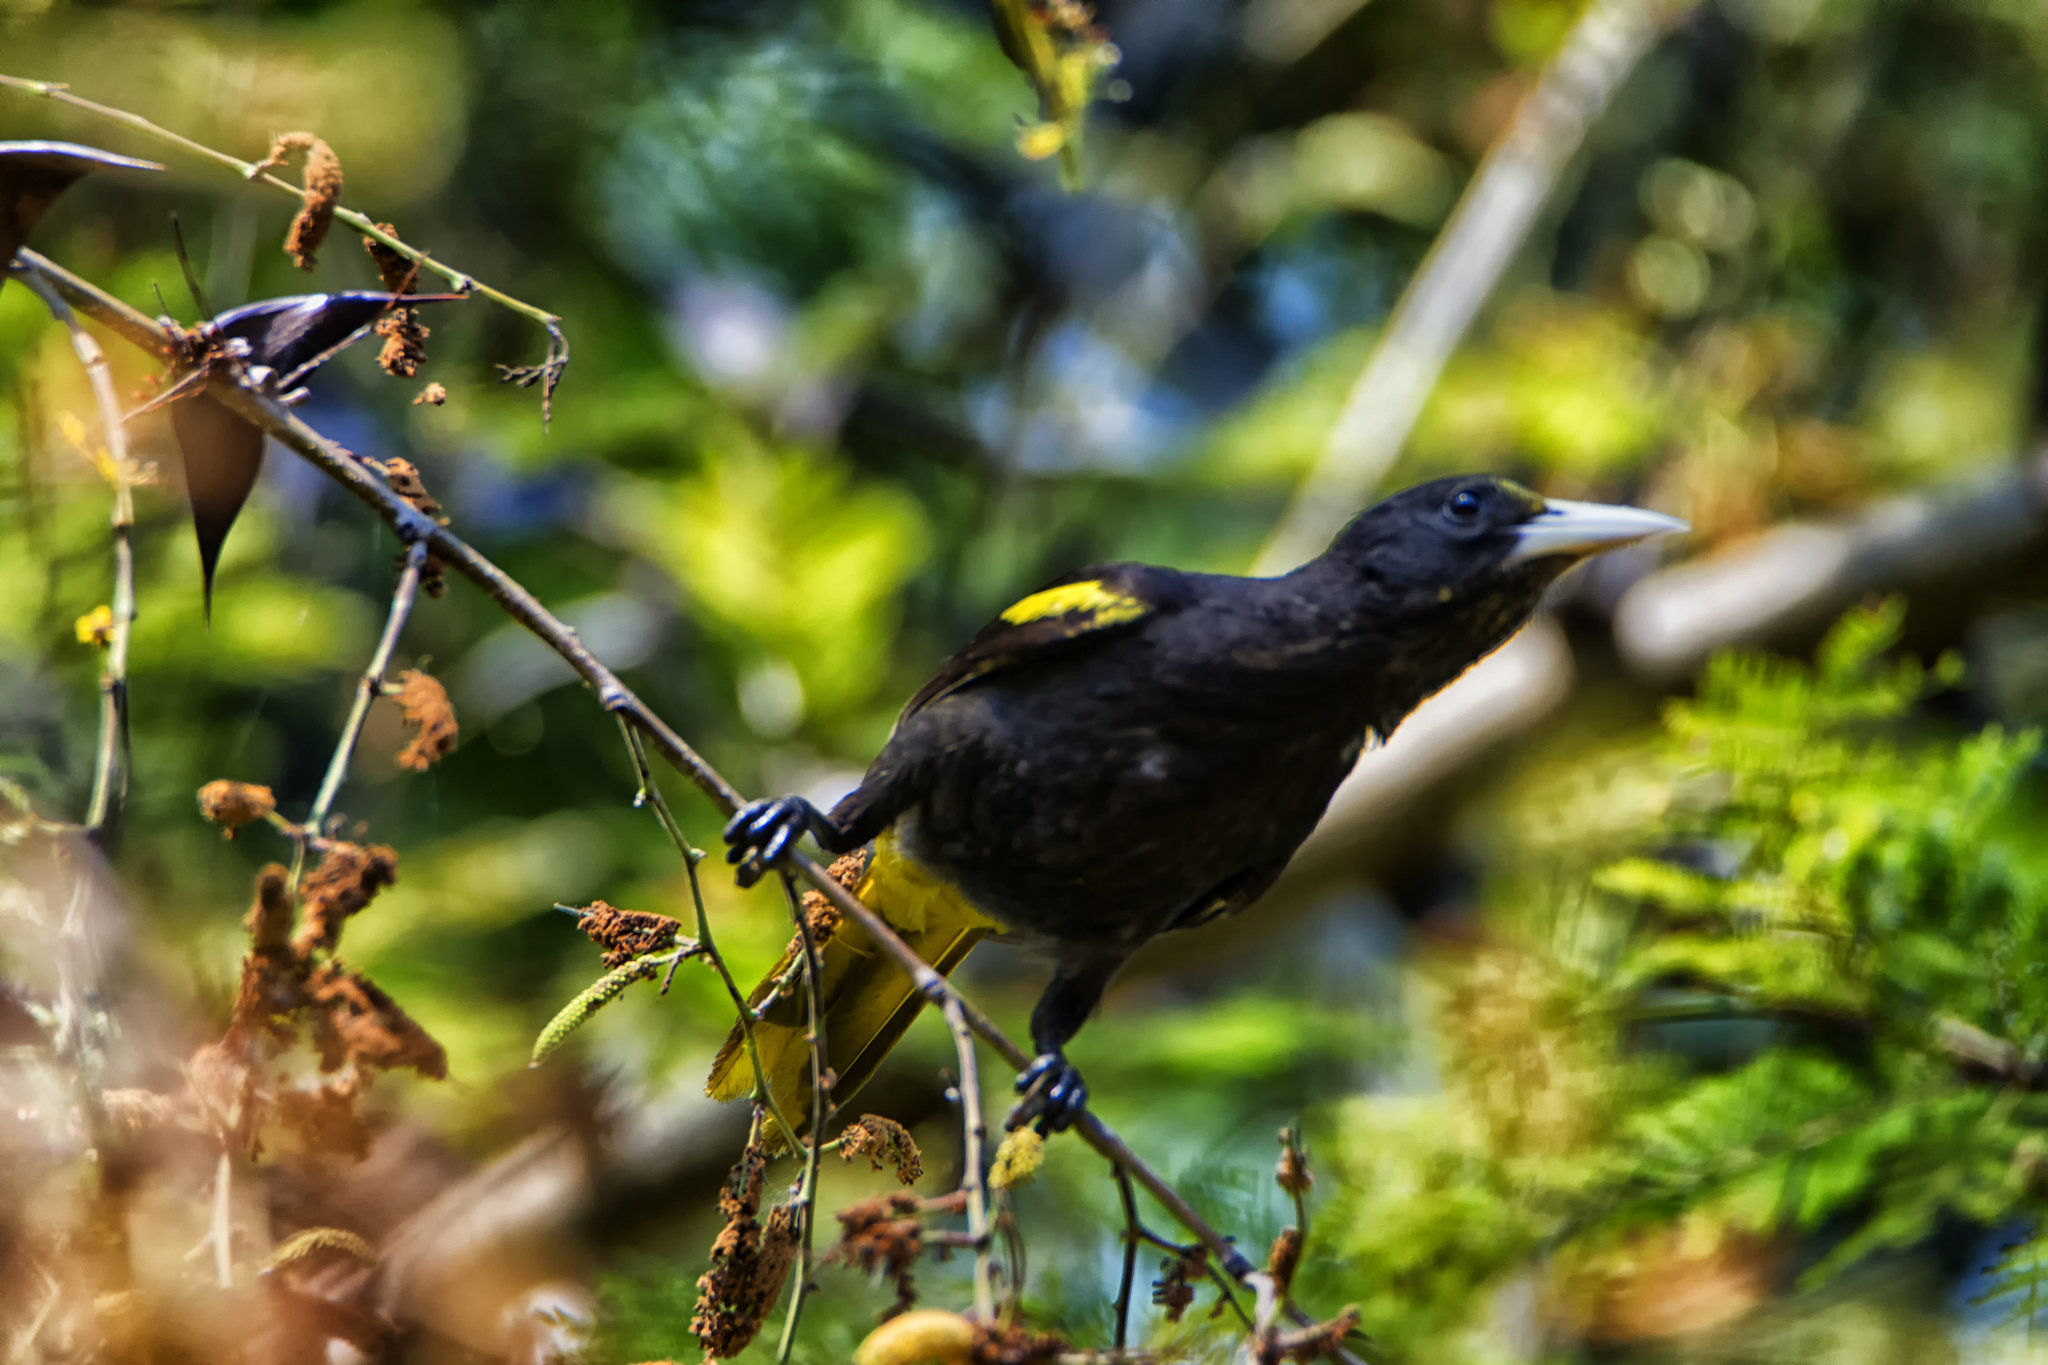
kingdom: Animalia
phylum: Chordata
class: Aves
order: Passeriformes
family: Icteridae
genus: Cacicus
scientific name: Cacicus melanicterus
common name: Yellow-winged cacique
